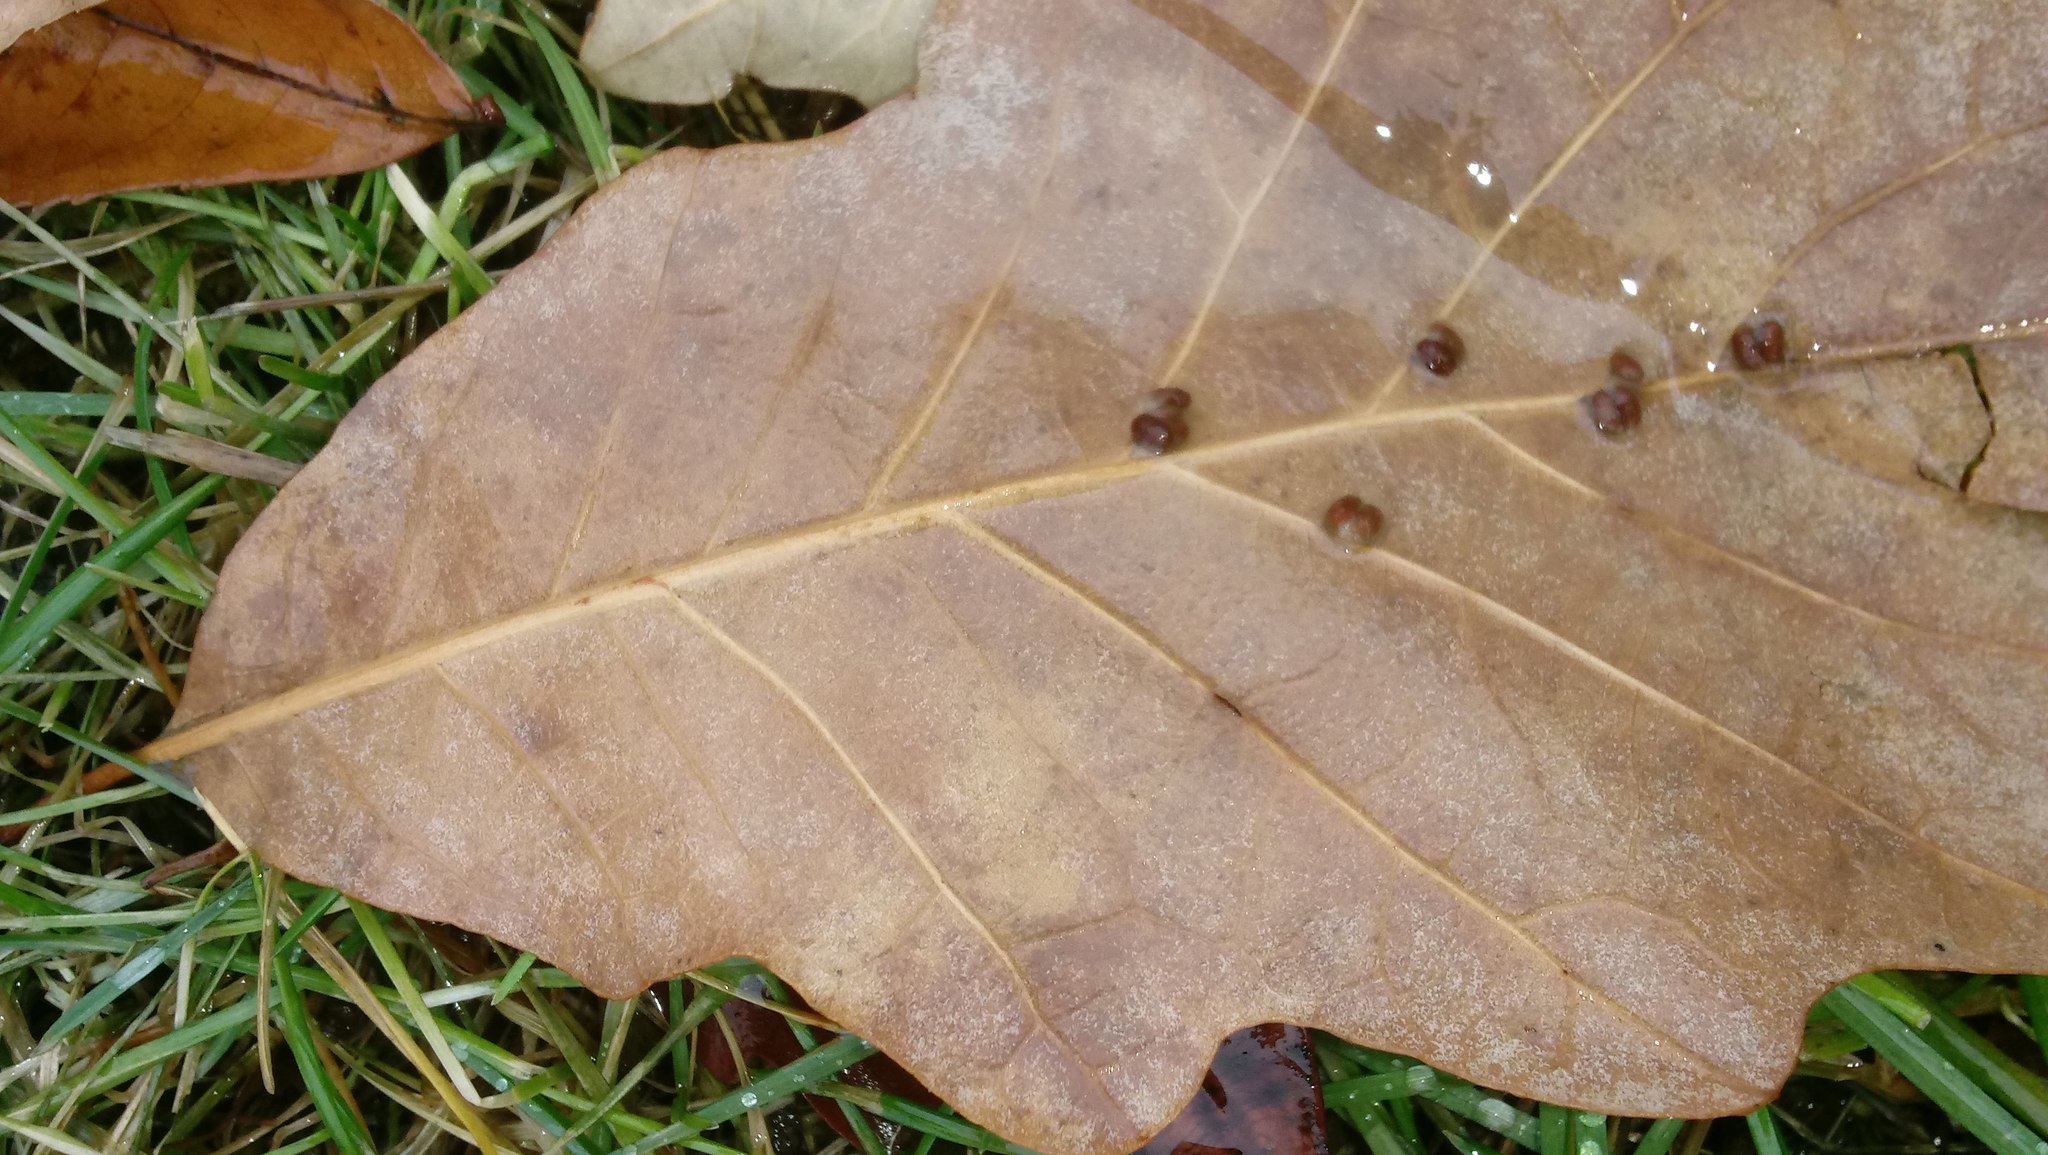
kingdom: Animalia
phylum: Arthropoda
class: Insecta
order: Hymenoptera
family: Cynipidae
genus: Andricus
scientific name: Andricus Druon ignotum
